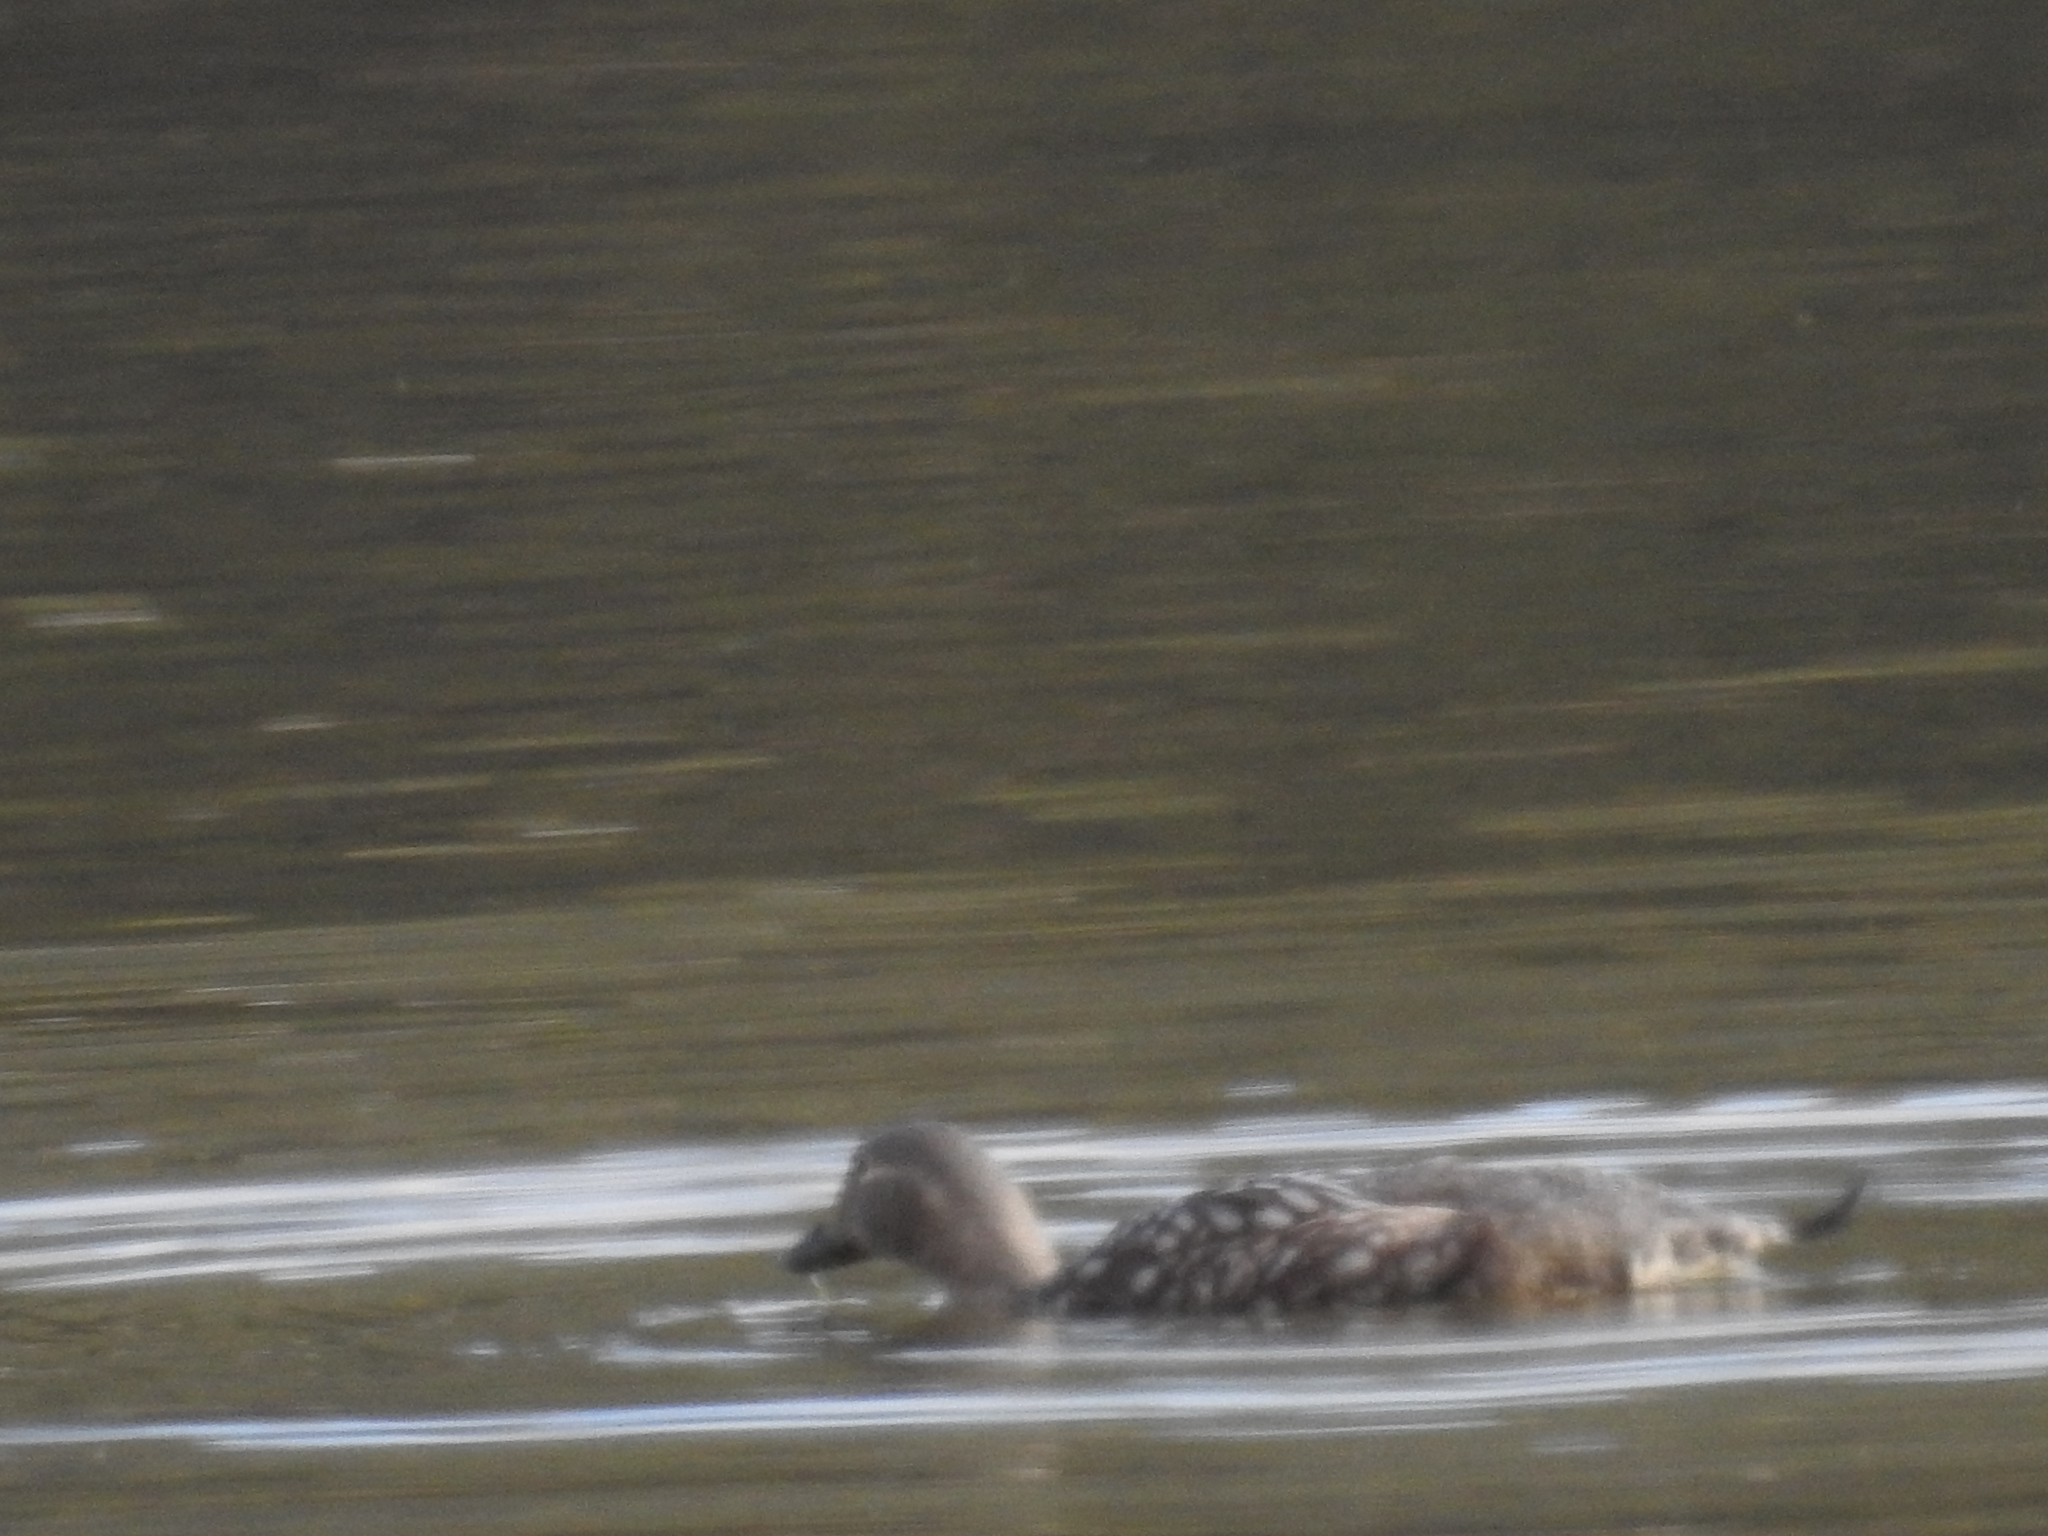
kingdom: Animalia
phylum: Chordata
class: Aves
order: Anseriformes
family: Anatidae
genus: Tachyeres
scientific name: Tachyeres patachonicus
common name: Flying steamer duck
